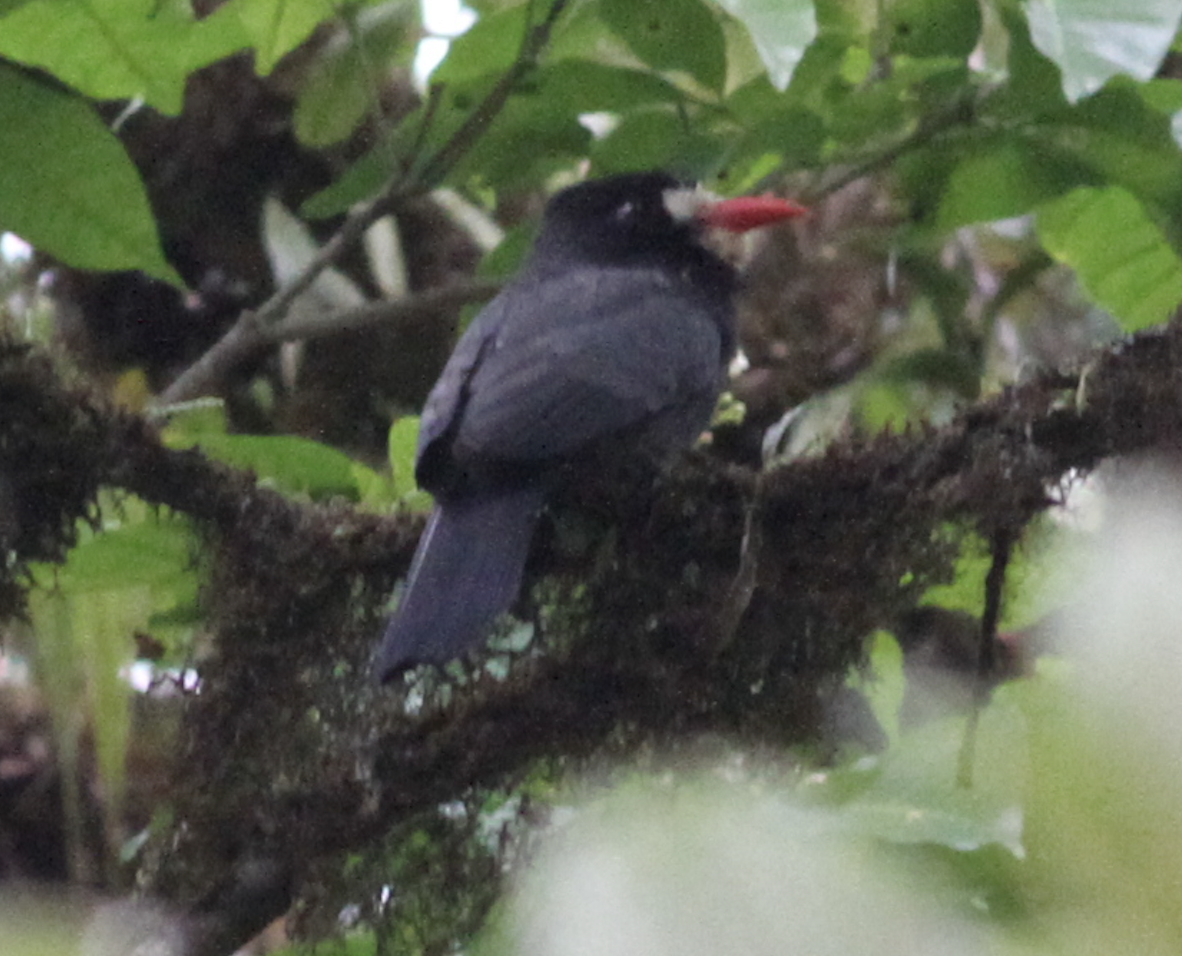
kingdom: Animalia
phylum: Chordata
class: Aves
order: Piciformes
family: Bucconidae
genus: Monasa
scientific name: Monasa morphoeus
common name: White-fronted nunbird
